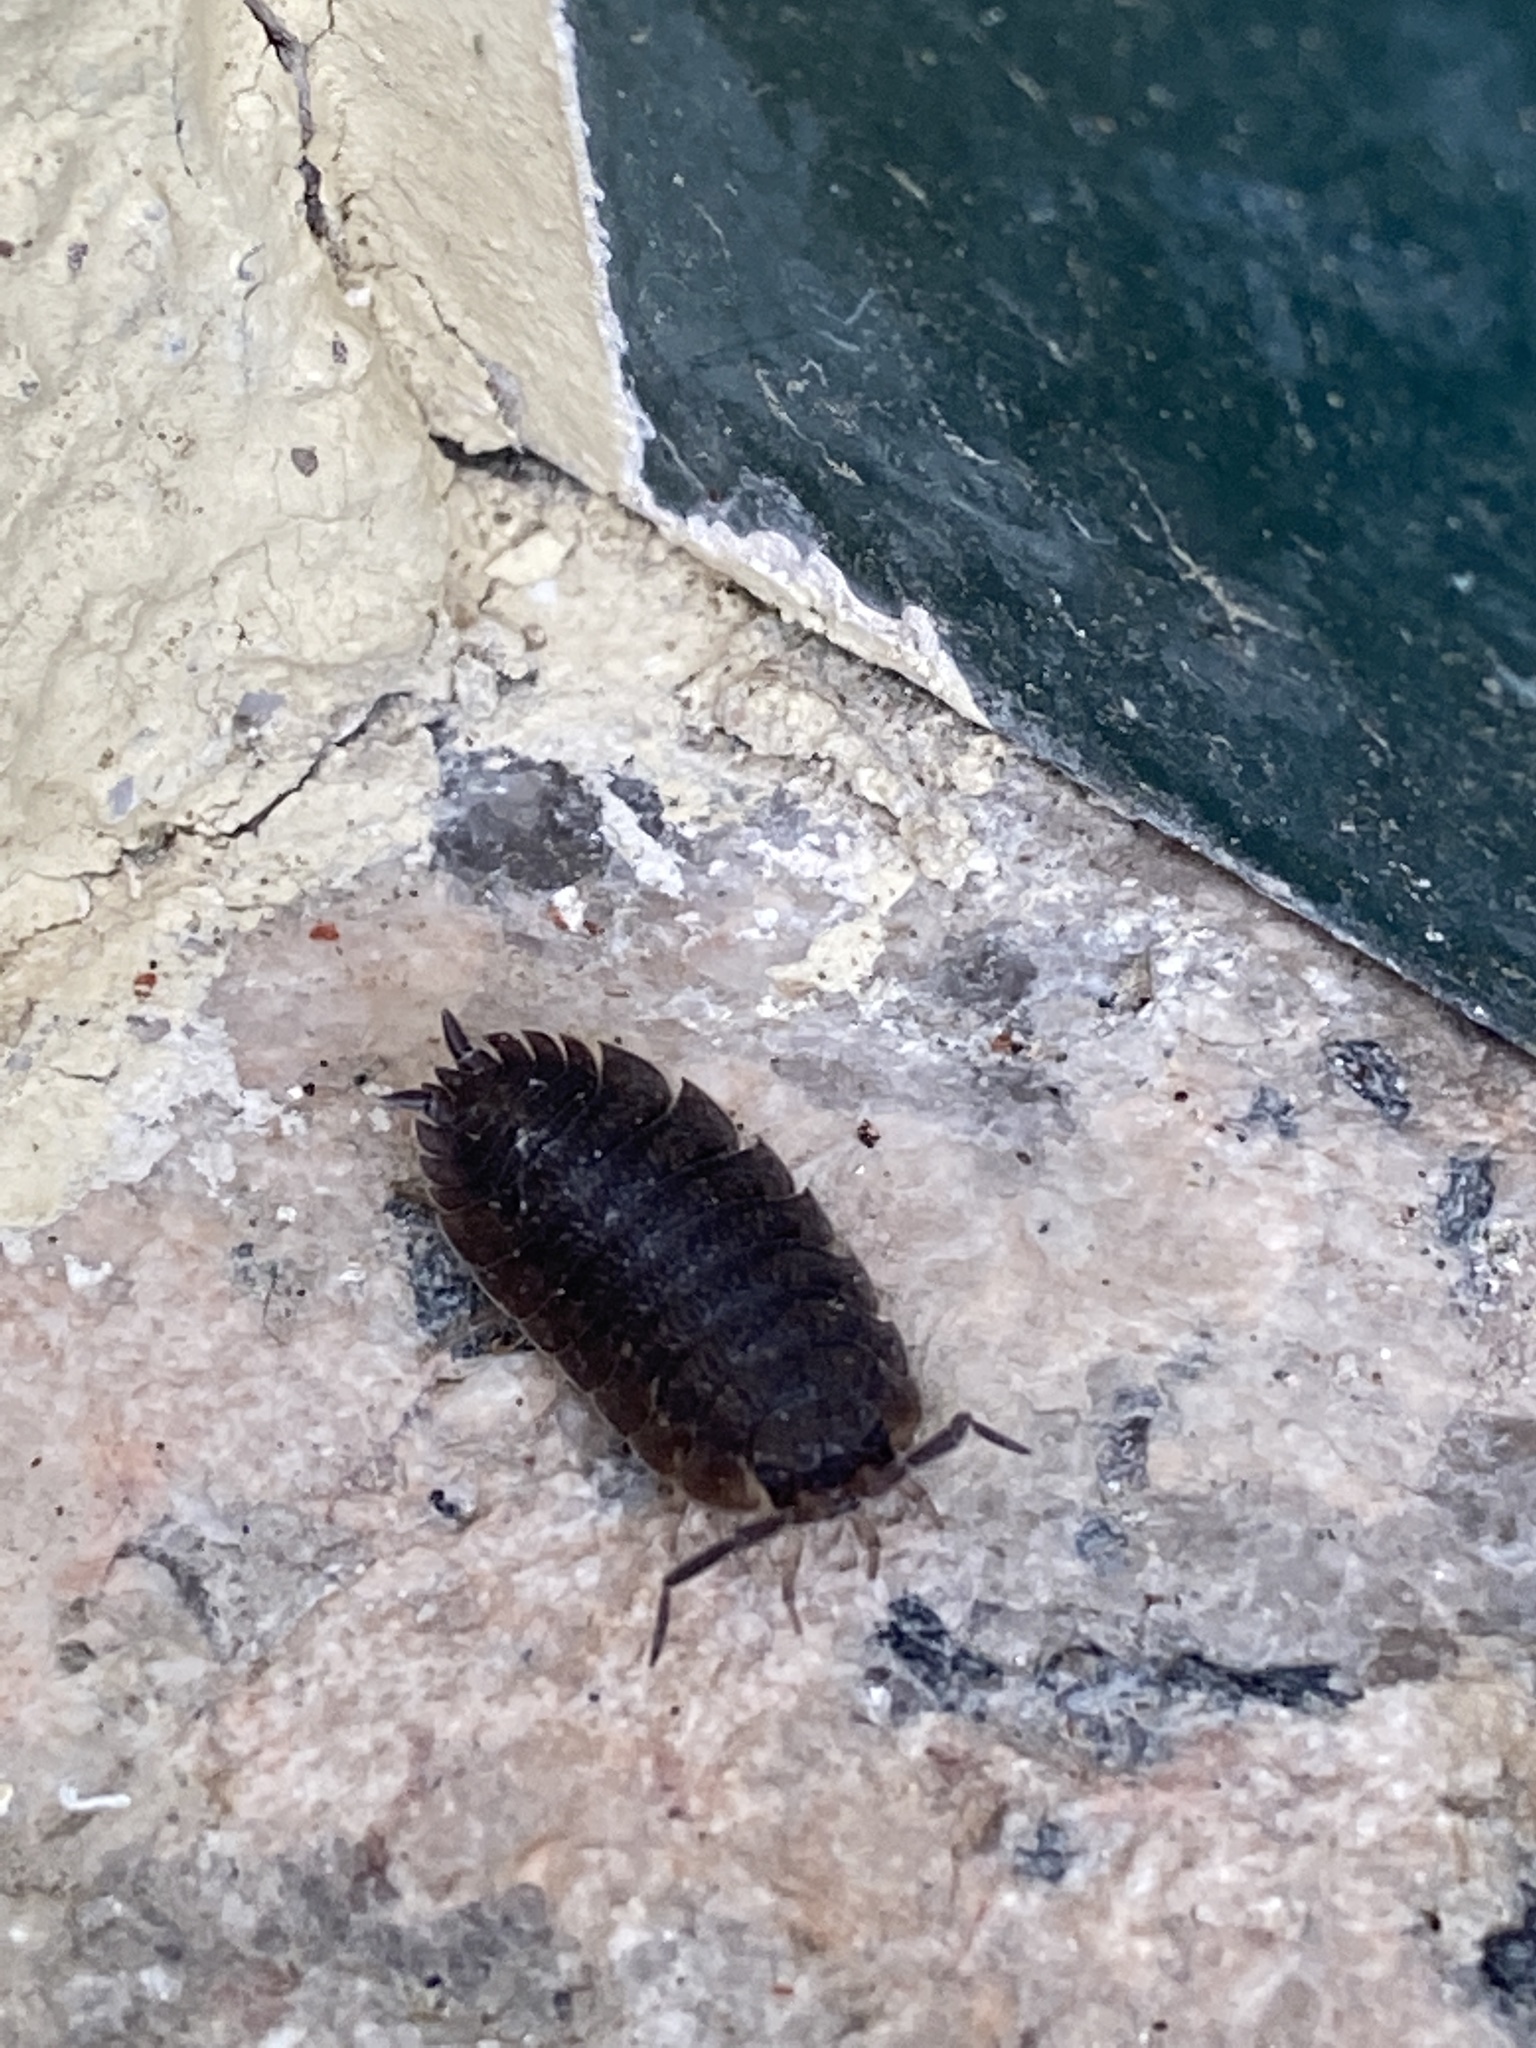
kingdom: Animalia
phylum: Arthropoda
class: Malacostraca
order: Isopoda
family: Porcellionidae
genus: Porcellio
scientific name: Porcellio scaber
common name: Common rough woodlouse
